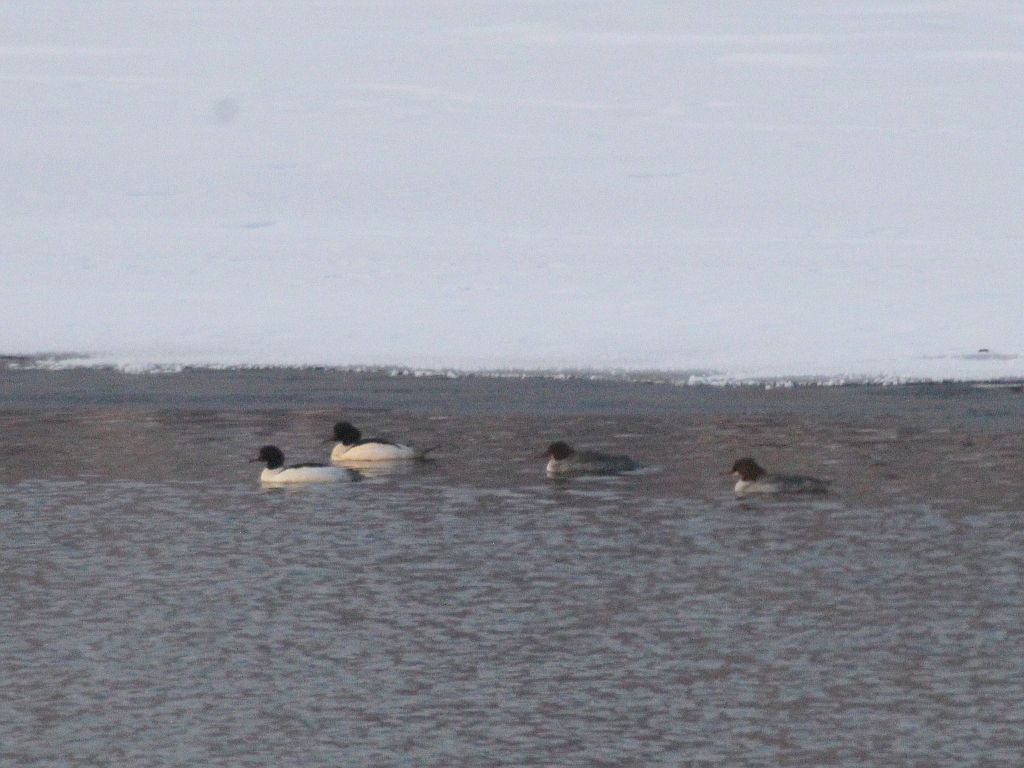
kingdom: Animalia
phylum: Chordata
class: Aves
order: Anseriformes
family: Anatidae
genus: Mergus
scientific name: Mergus merganser
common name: Common merganser
